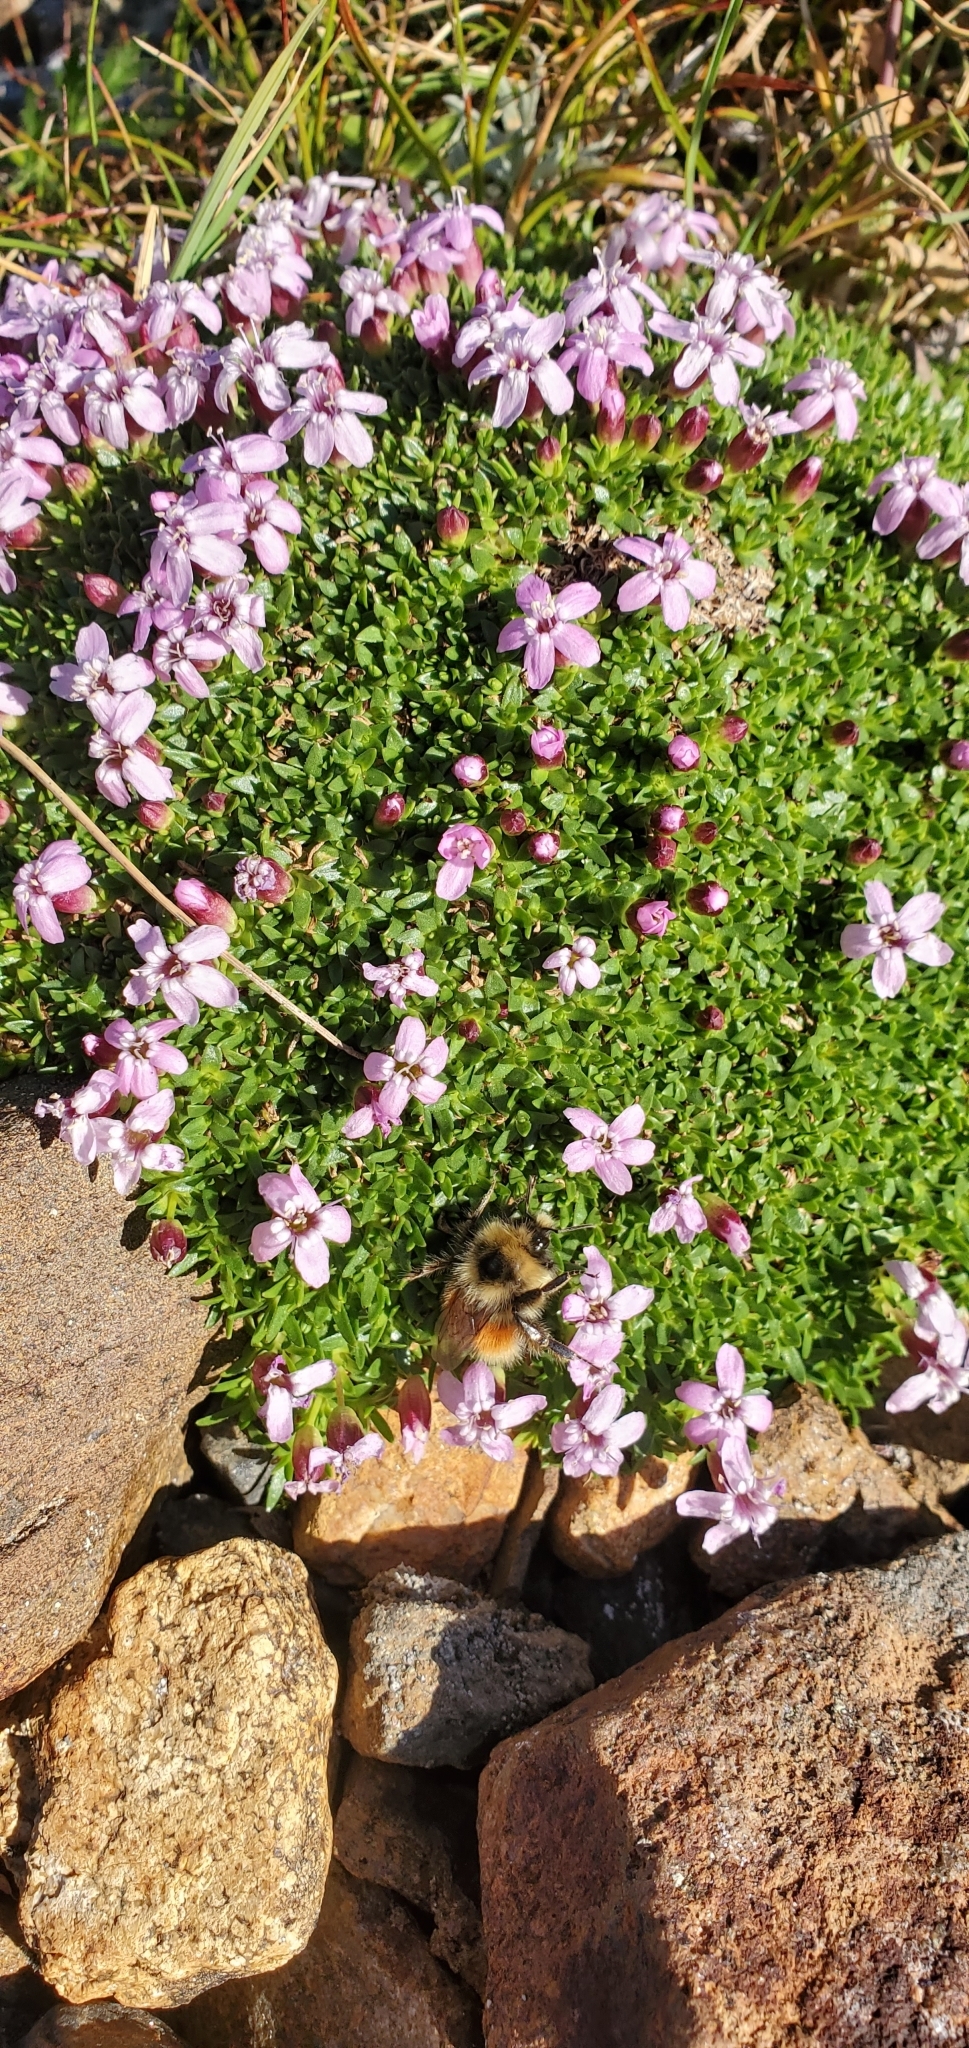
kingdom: Plantae
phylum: Tracheophyta
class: Magnoliopsida
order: Caryophyllales
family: Caryophyllaceae
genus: Silene
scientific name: Silene acaulis
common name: Moss campion
